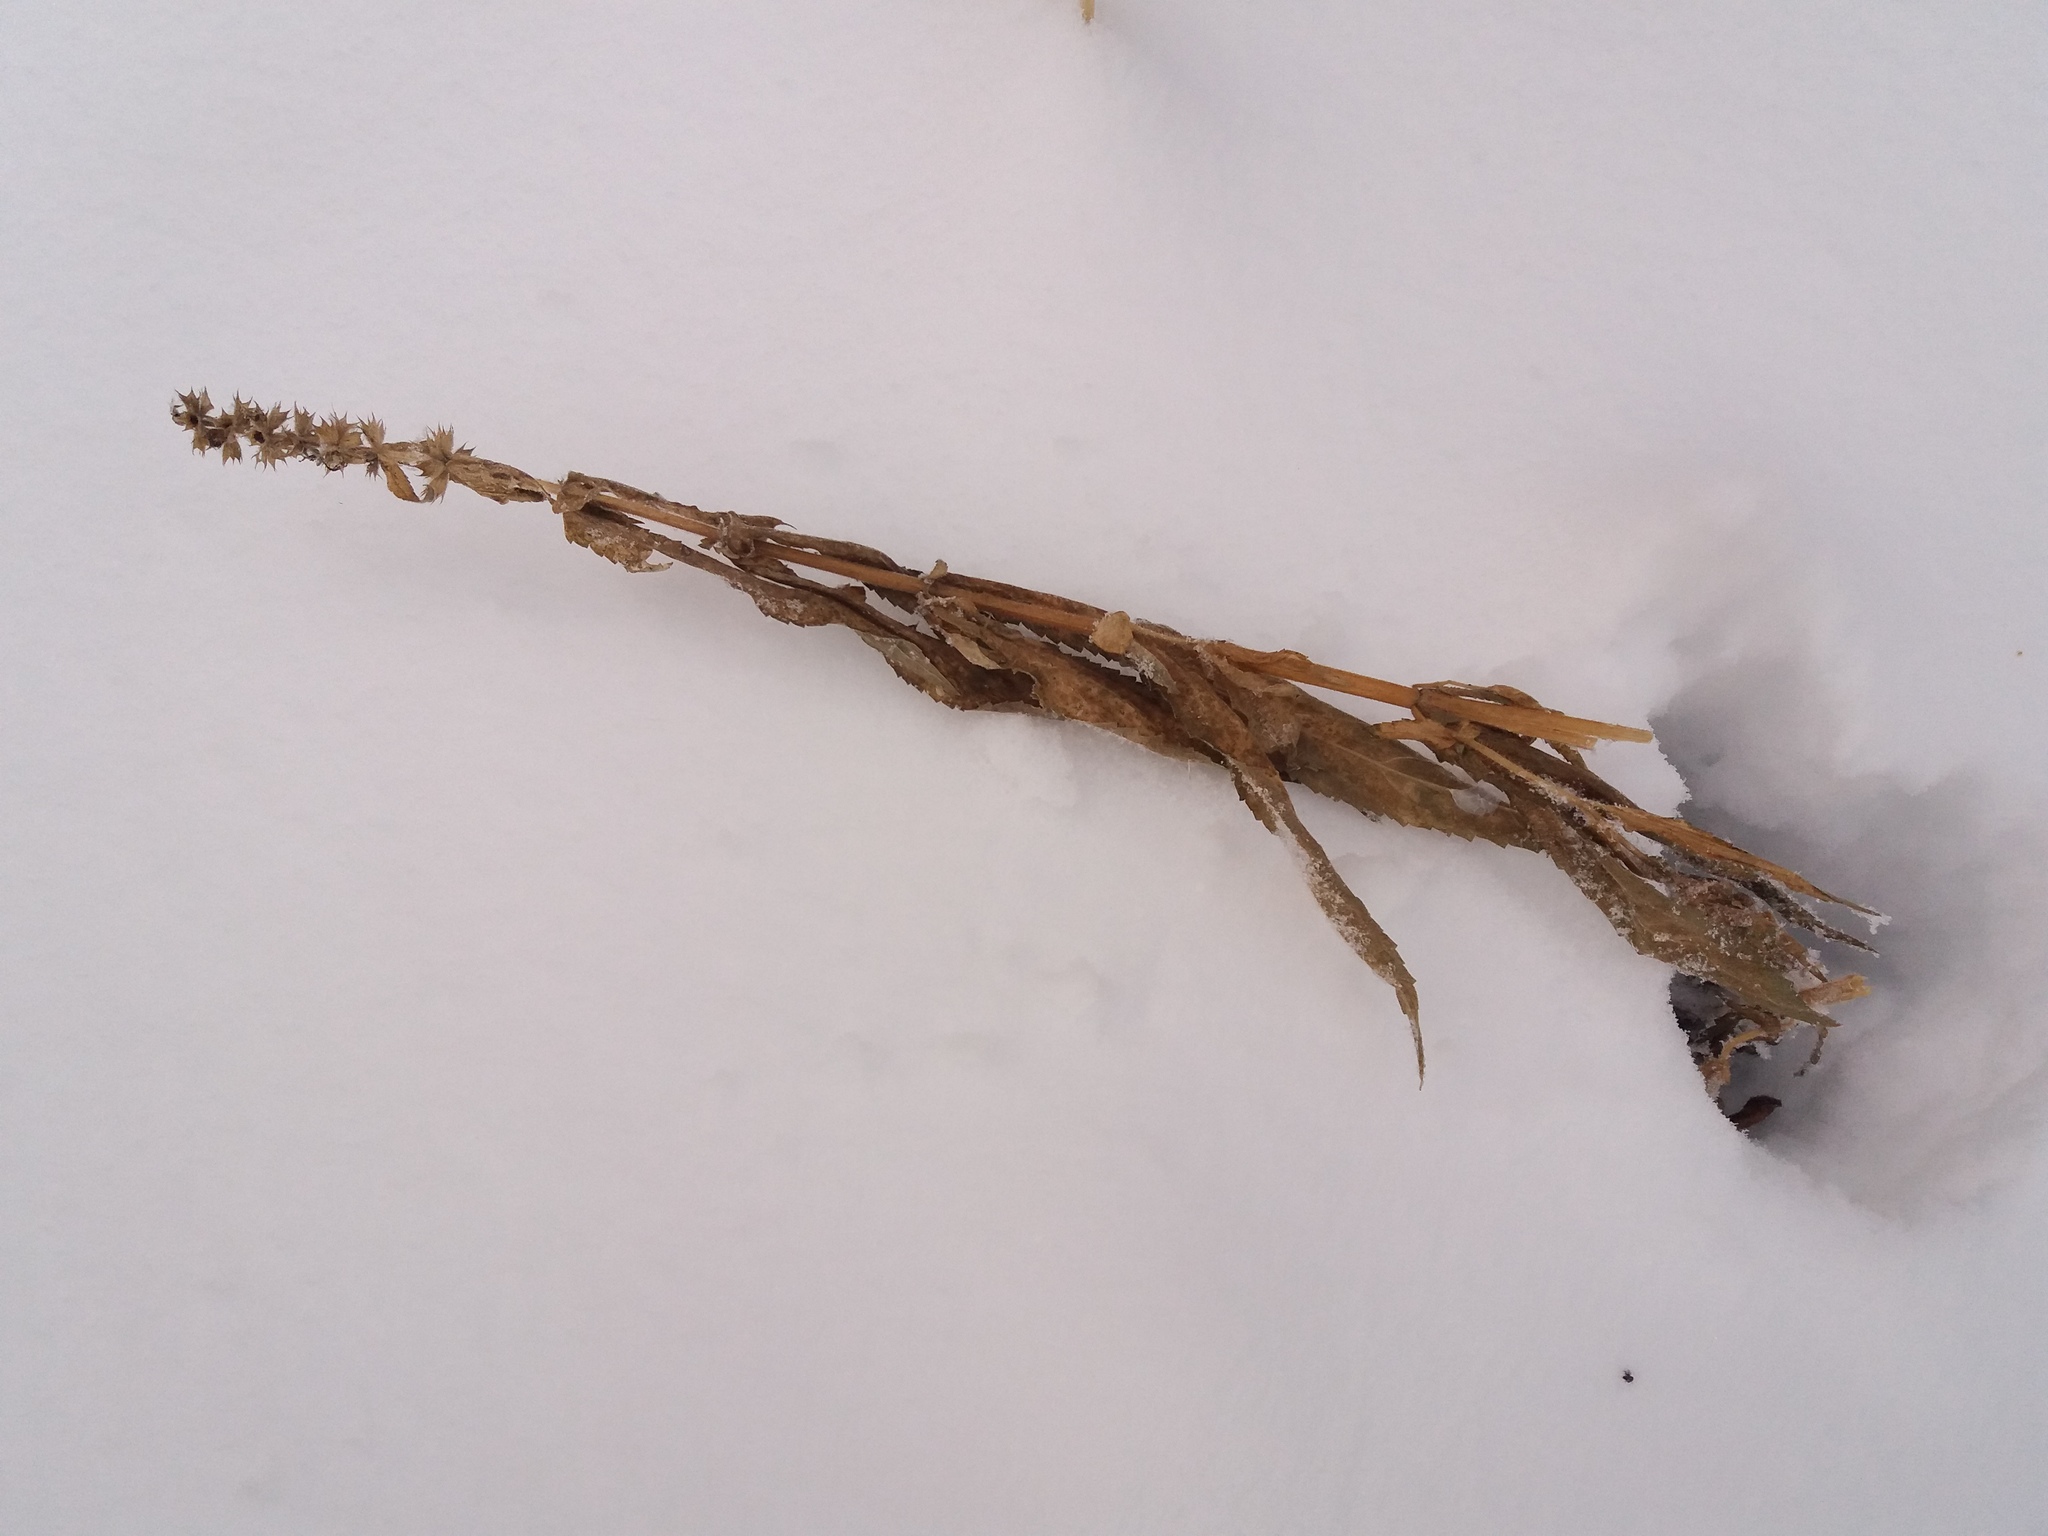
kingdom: Plantae
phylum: Tracheophyta
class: Magnoliopsida
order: Lamiales
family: Lamiaceae
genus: Stachys
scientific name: Stachys palustris
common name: Marsh woundwort
